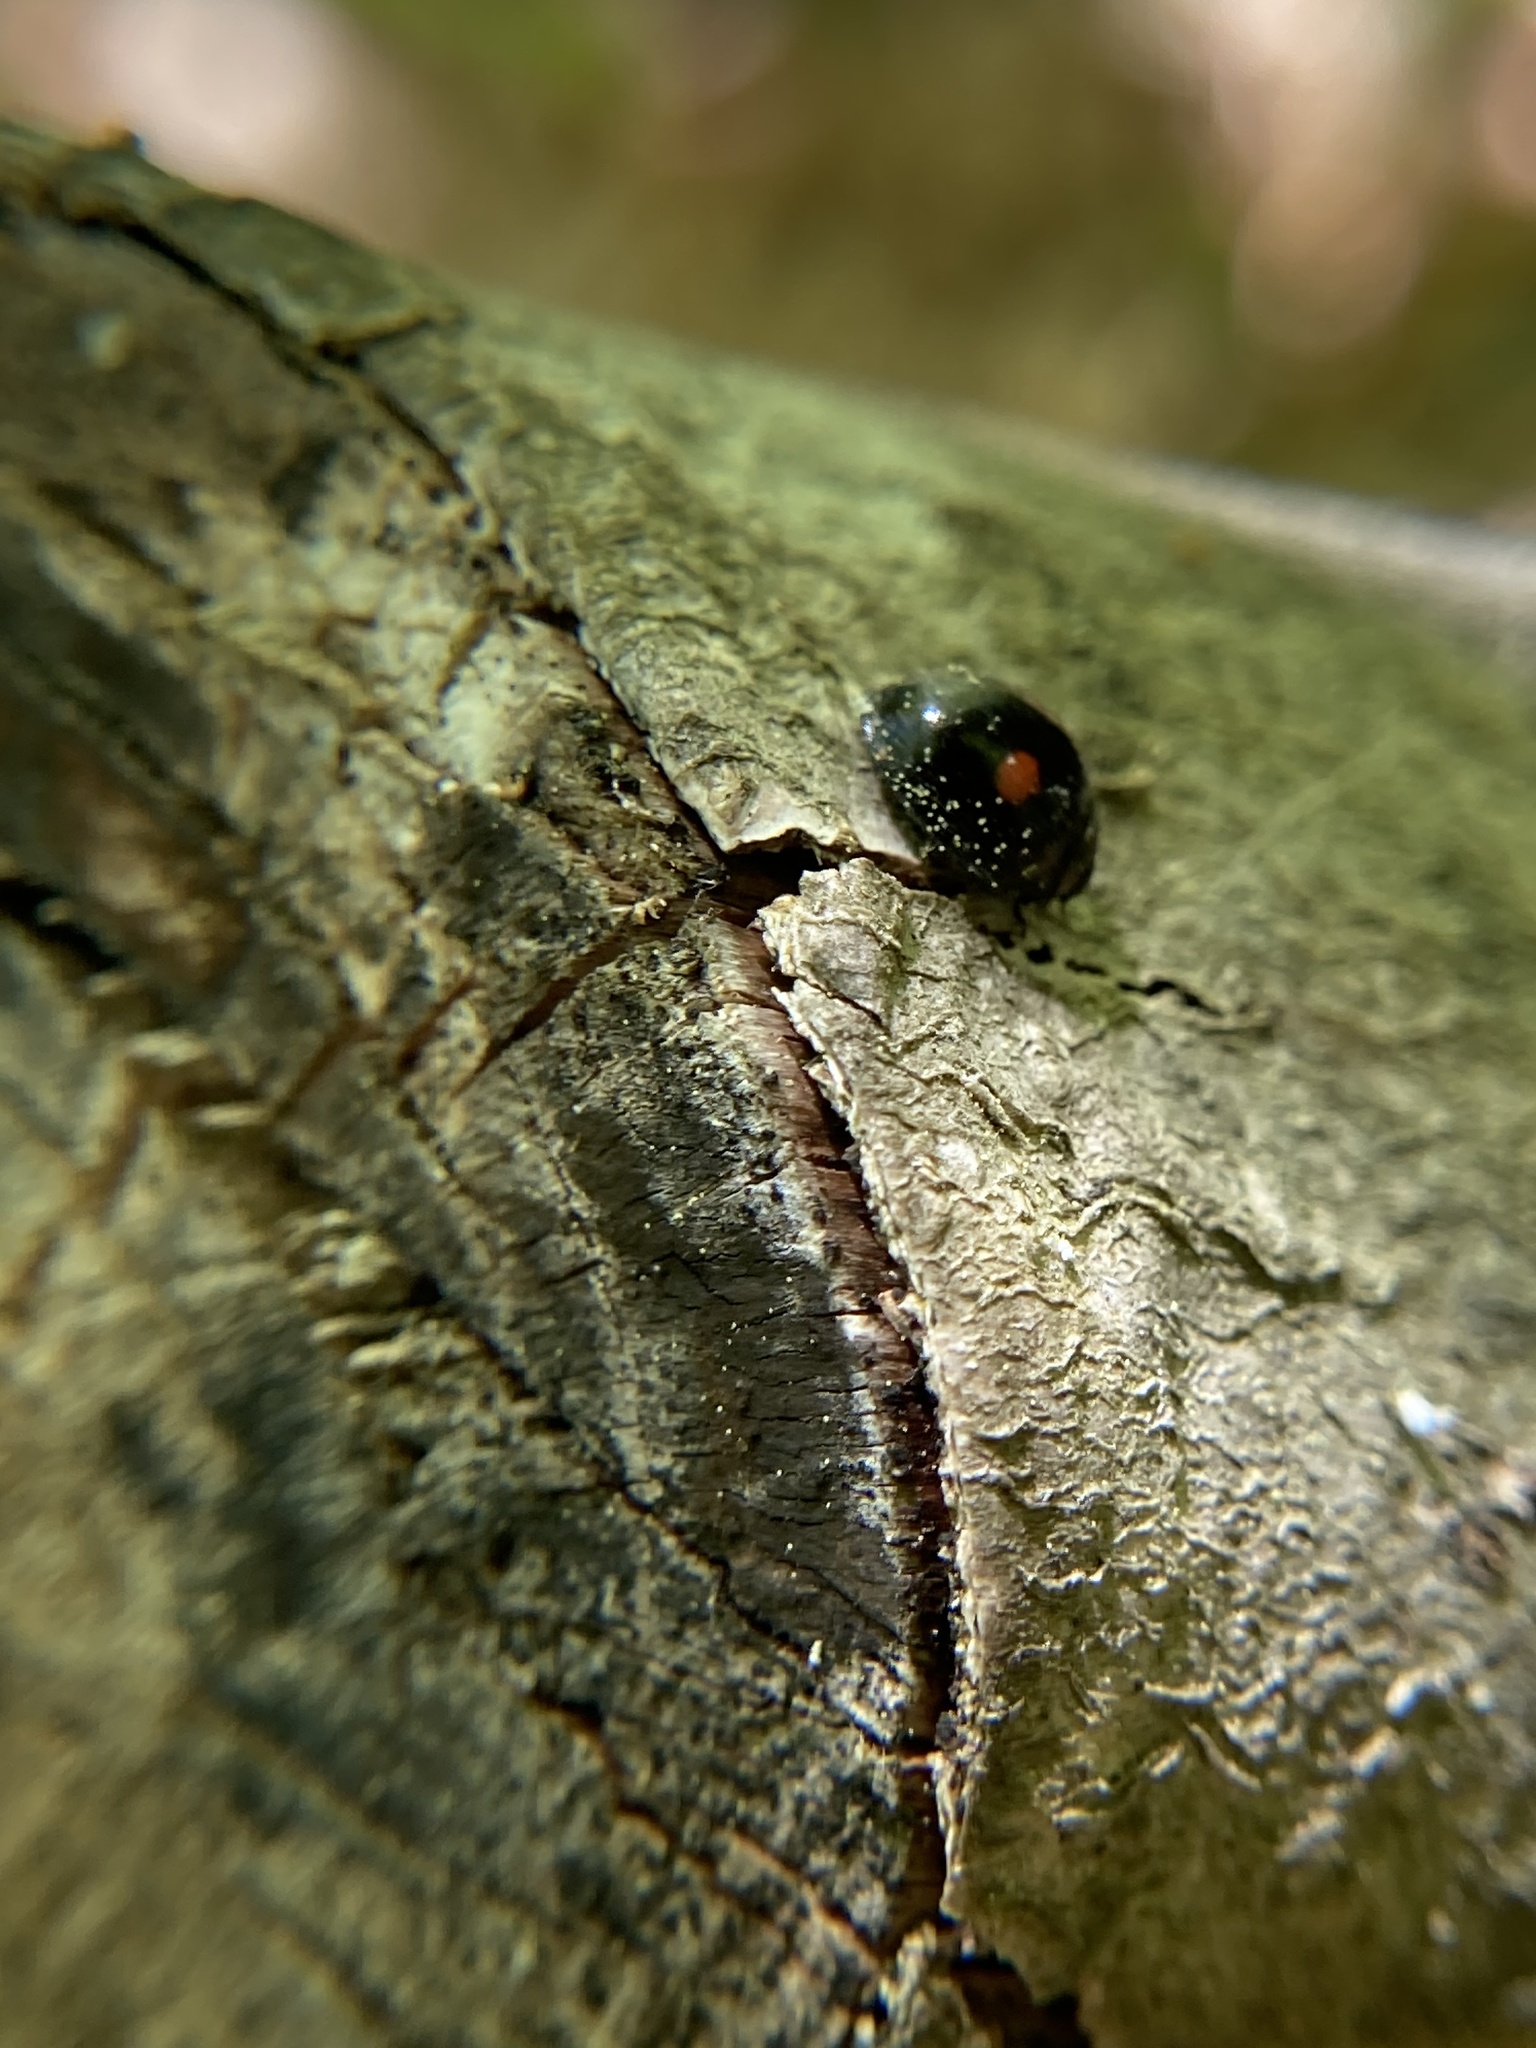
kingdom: Animalia
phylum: Arthropoda
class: Insecta
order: Coleoptera
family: Coccinellidae
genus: Chilocorus
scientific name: Chilocorus stigma
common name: Twicestabbed lady beetle
